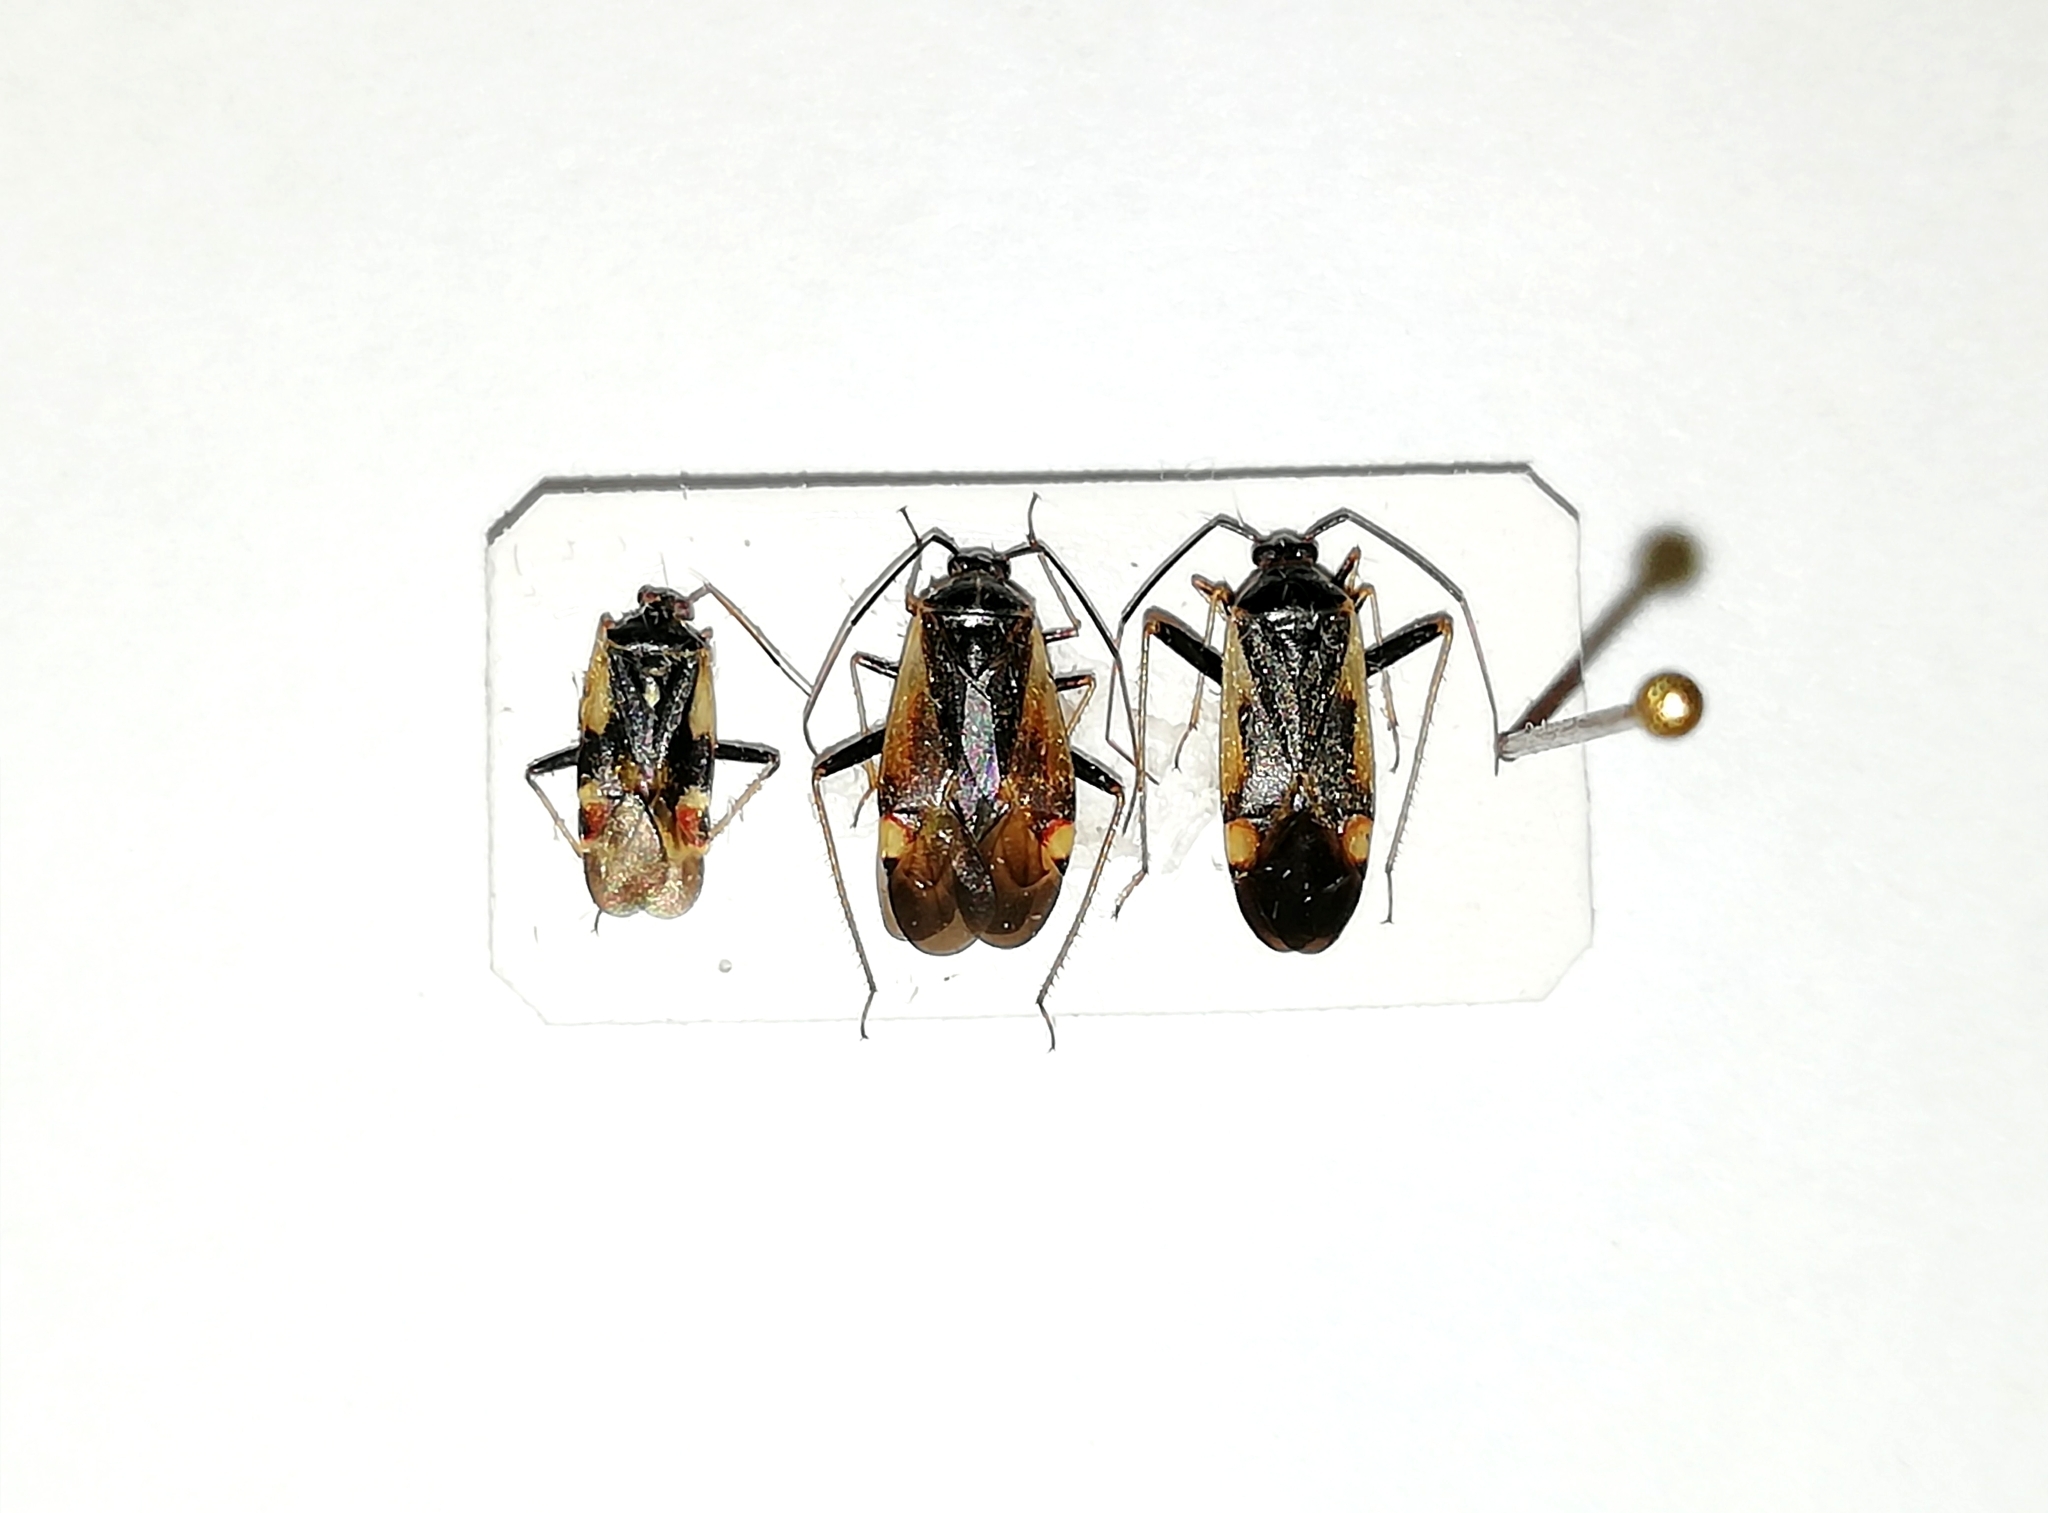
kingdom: Animalia
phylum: Arthropoda
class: Insecta
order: Hemiptera
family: Miridae
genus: Adelphocoris
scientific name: Adelphocoris seticornis
